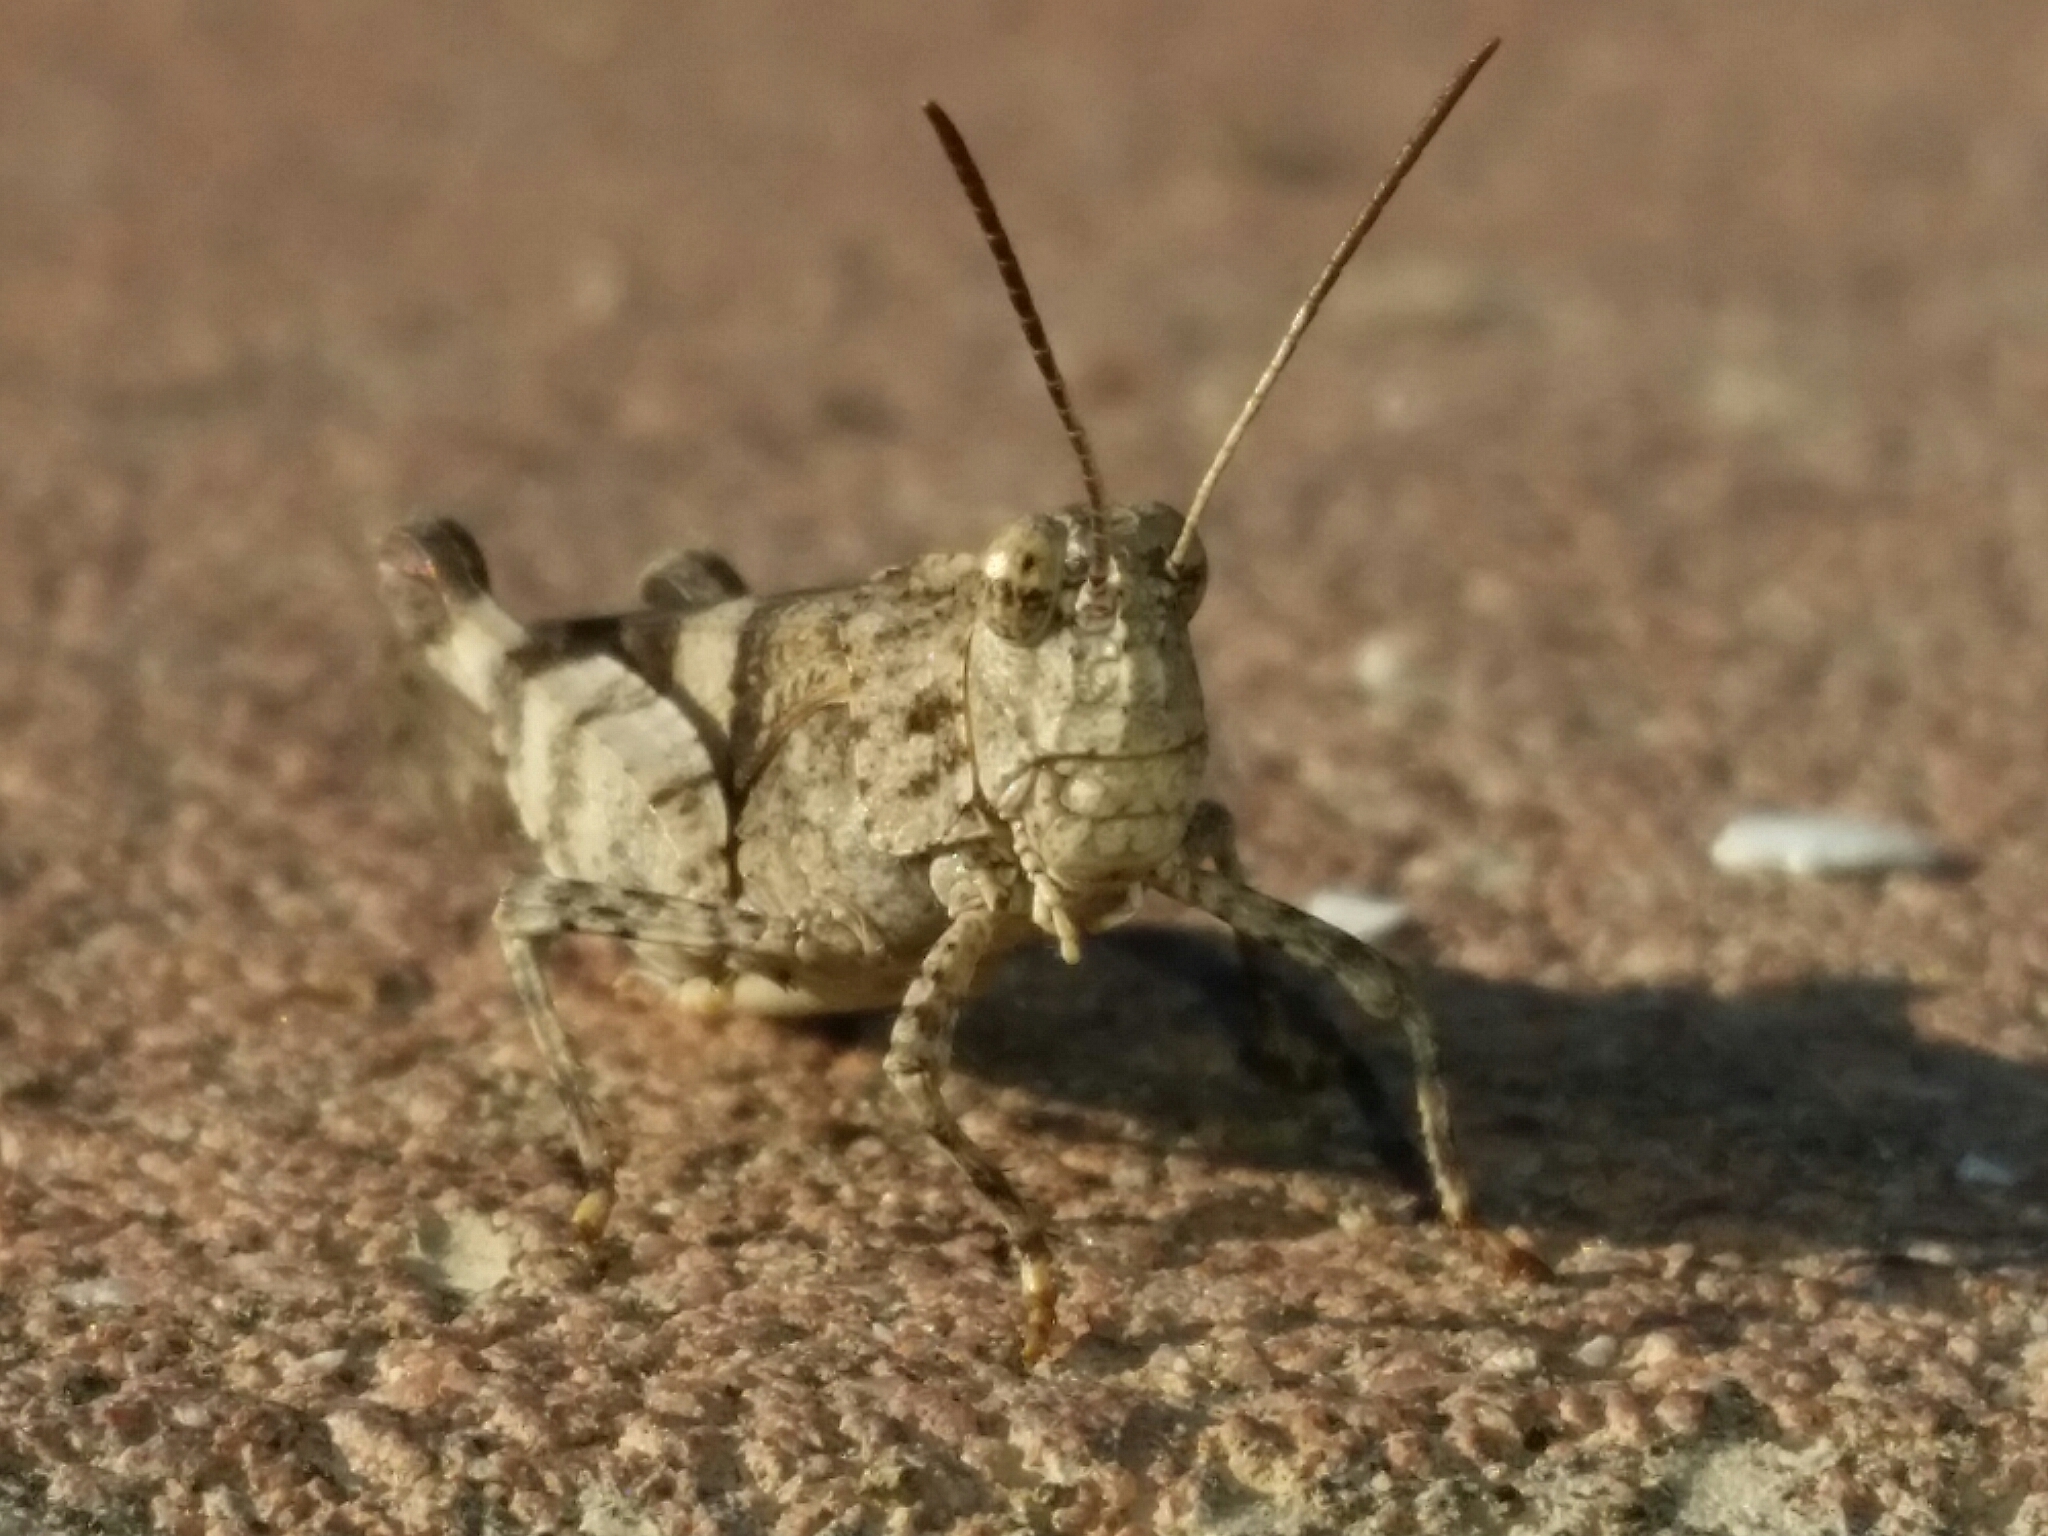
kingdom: Animalia
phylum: Arthropoda
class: Insecta
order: Orthoptera
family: Acrididae
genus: Oedipoda
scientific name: Oedipoda caerulescens
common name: Blue-winged grasshopper
